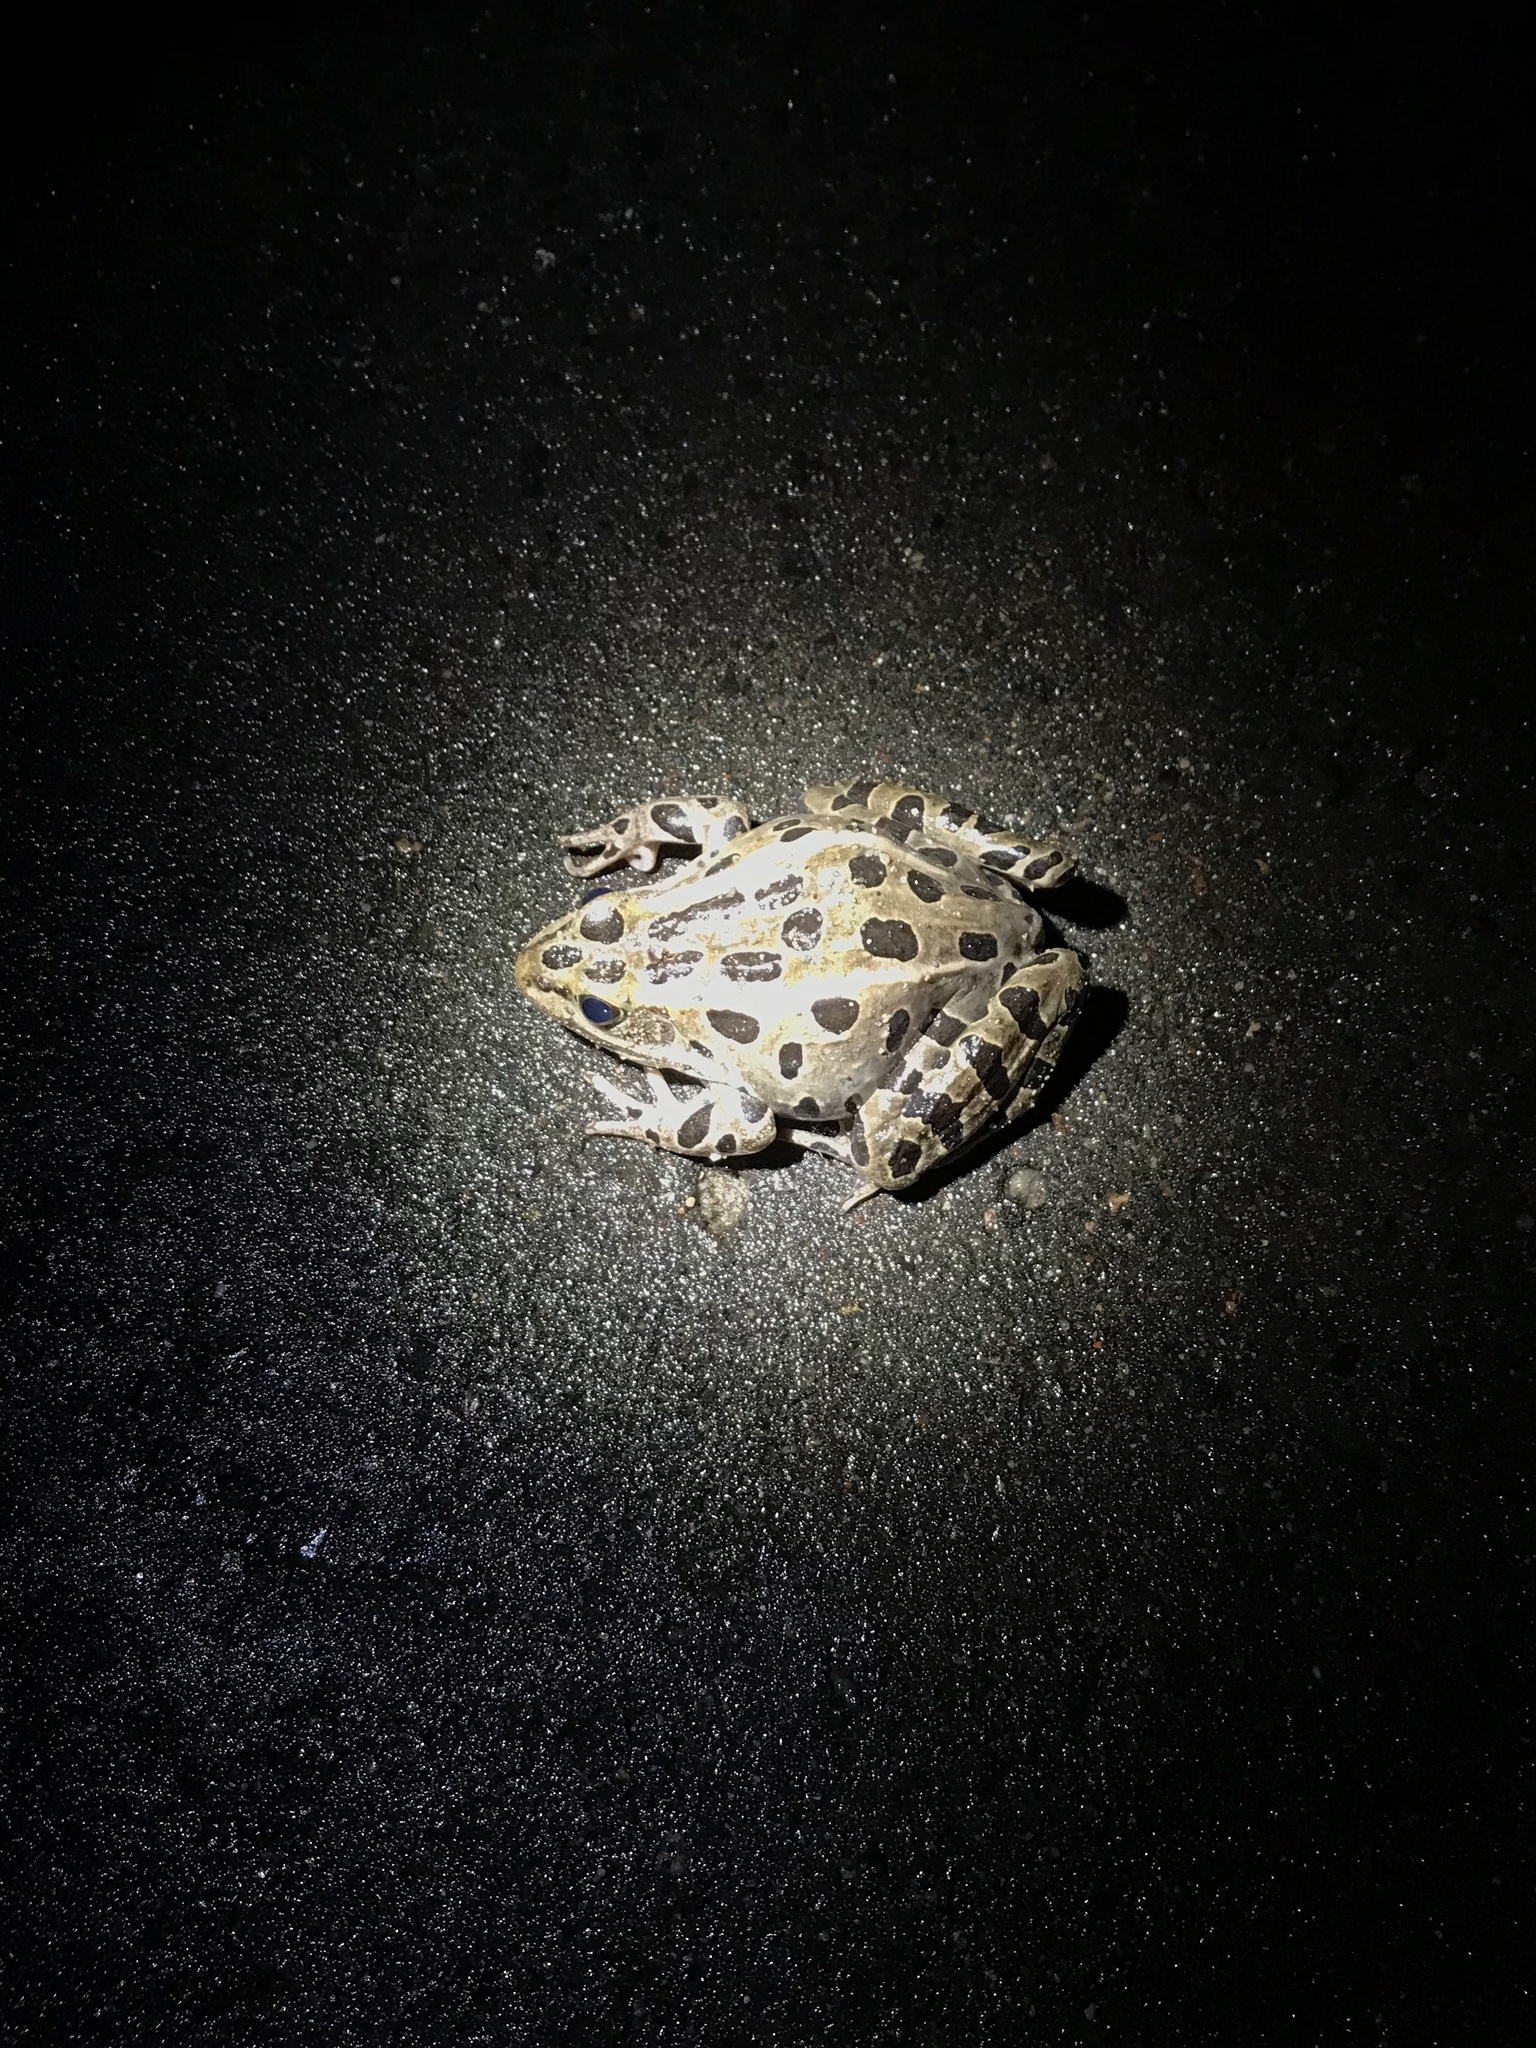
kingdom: Animalia
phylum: Chordata
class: Amphibia
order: Anura
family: Ranidae
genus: Lithobates
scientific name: Lithobates pipiens
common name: Northern leopard frog
